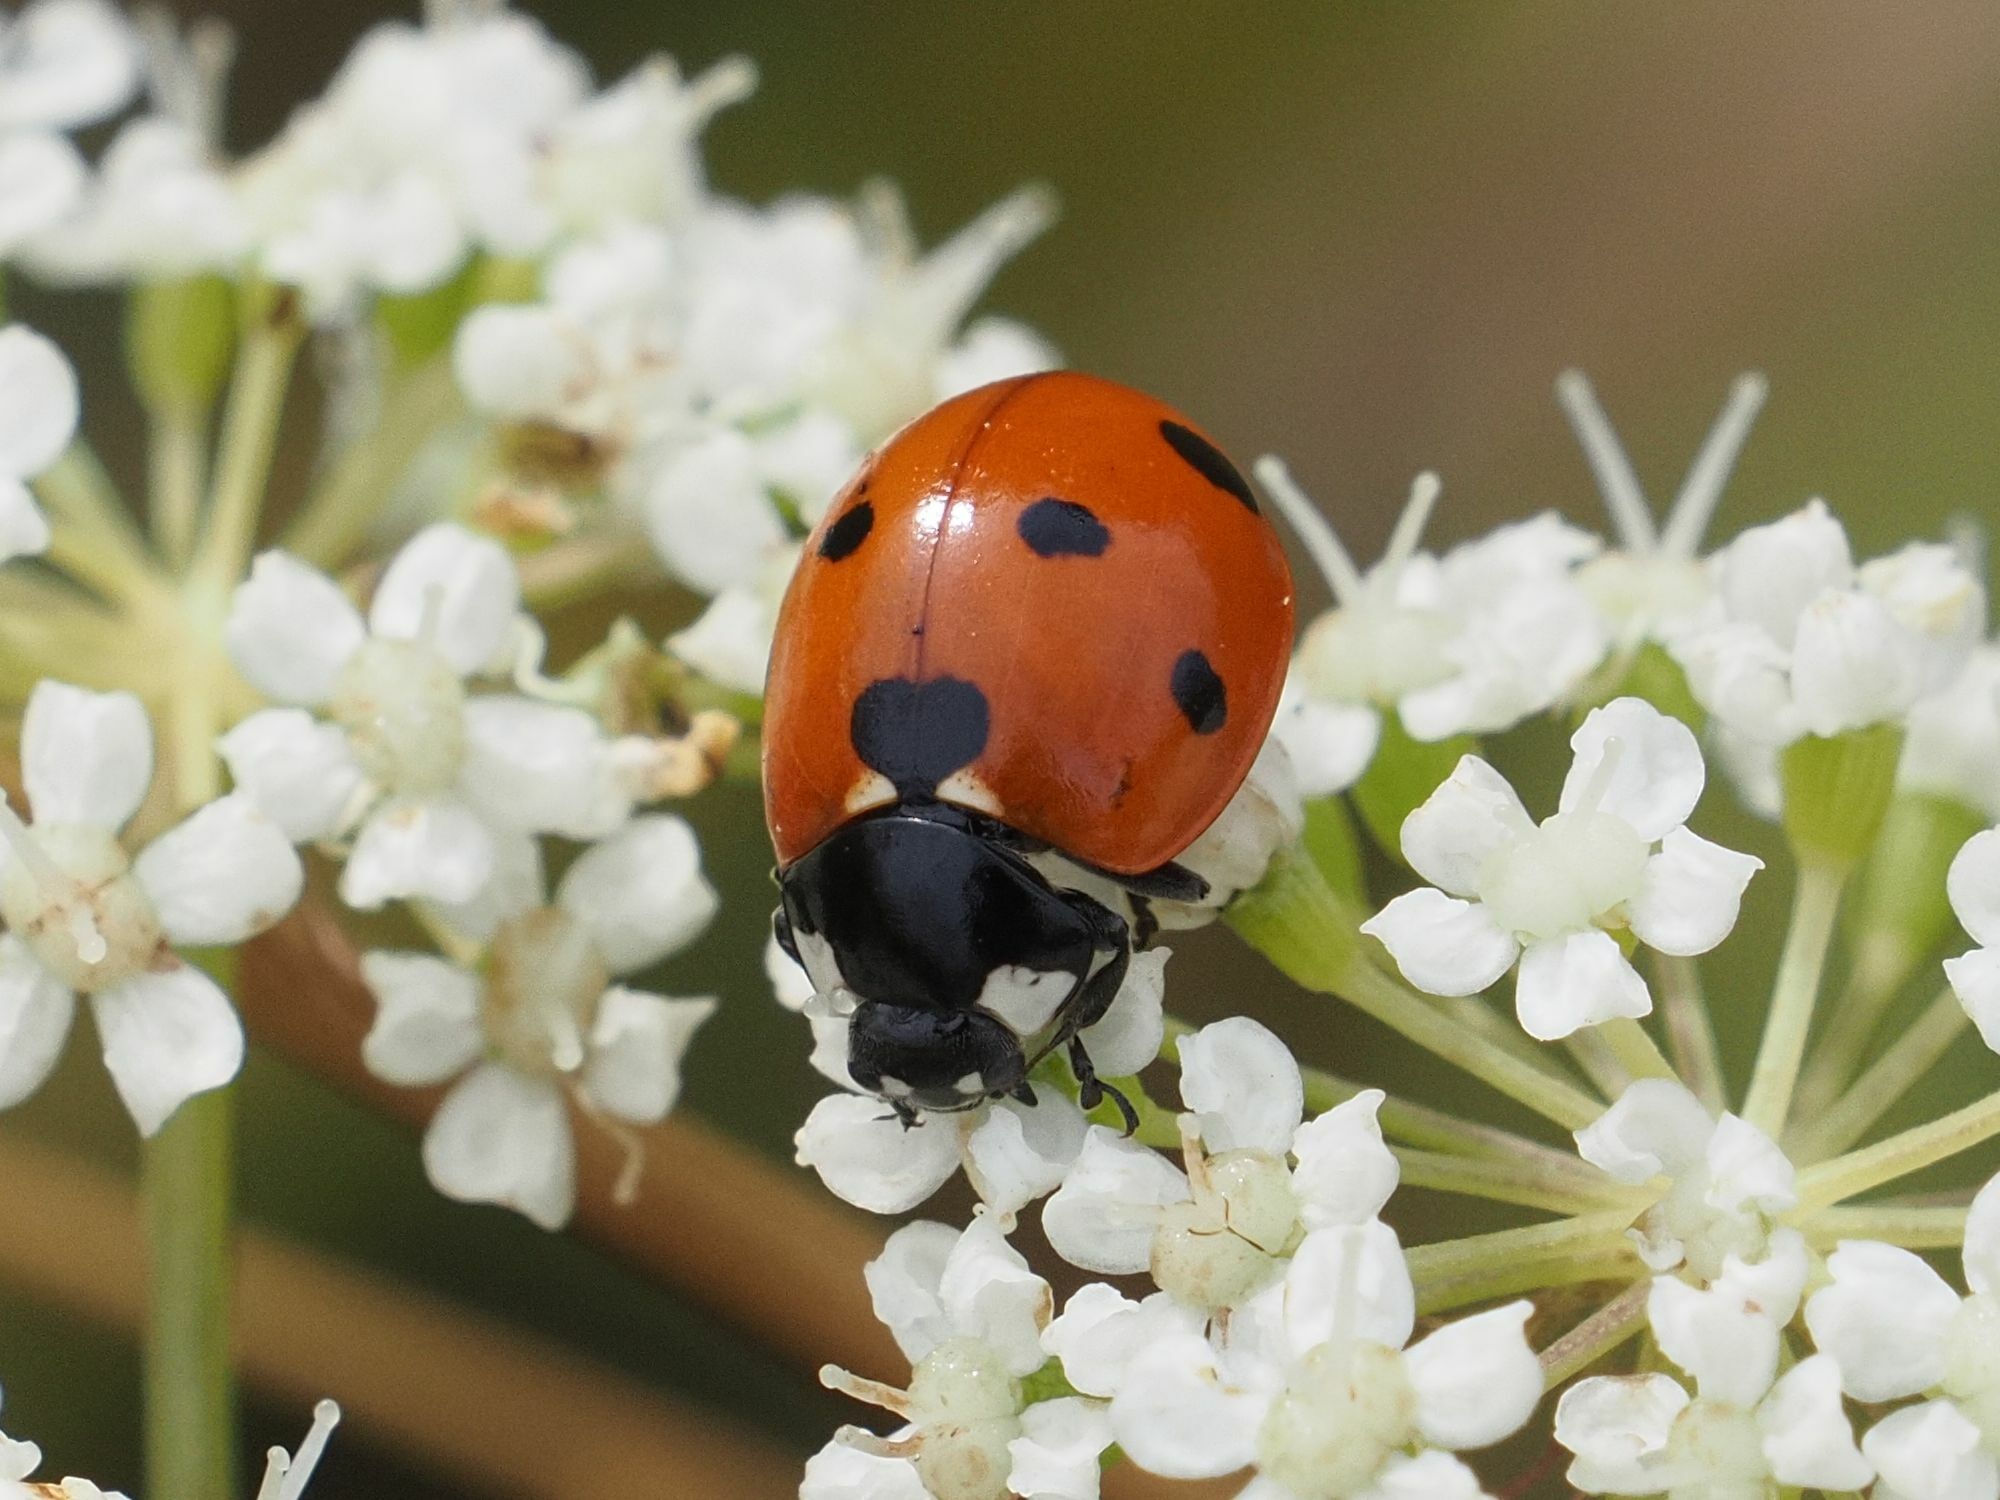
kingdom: Animalia
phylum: Arthropoda
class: Insecta
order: Coleoptera
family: Coccinellidae
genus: Coccinella
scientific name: Coccinella septempunctata
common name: Sevenspotted lady beetle
